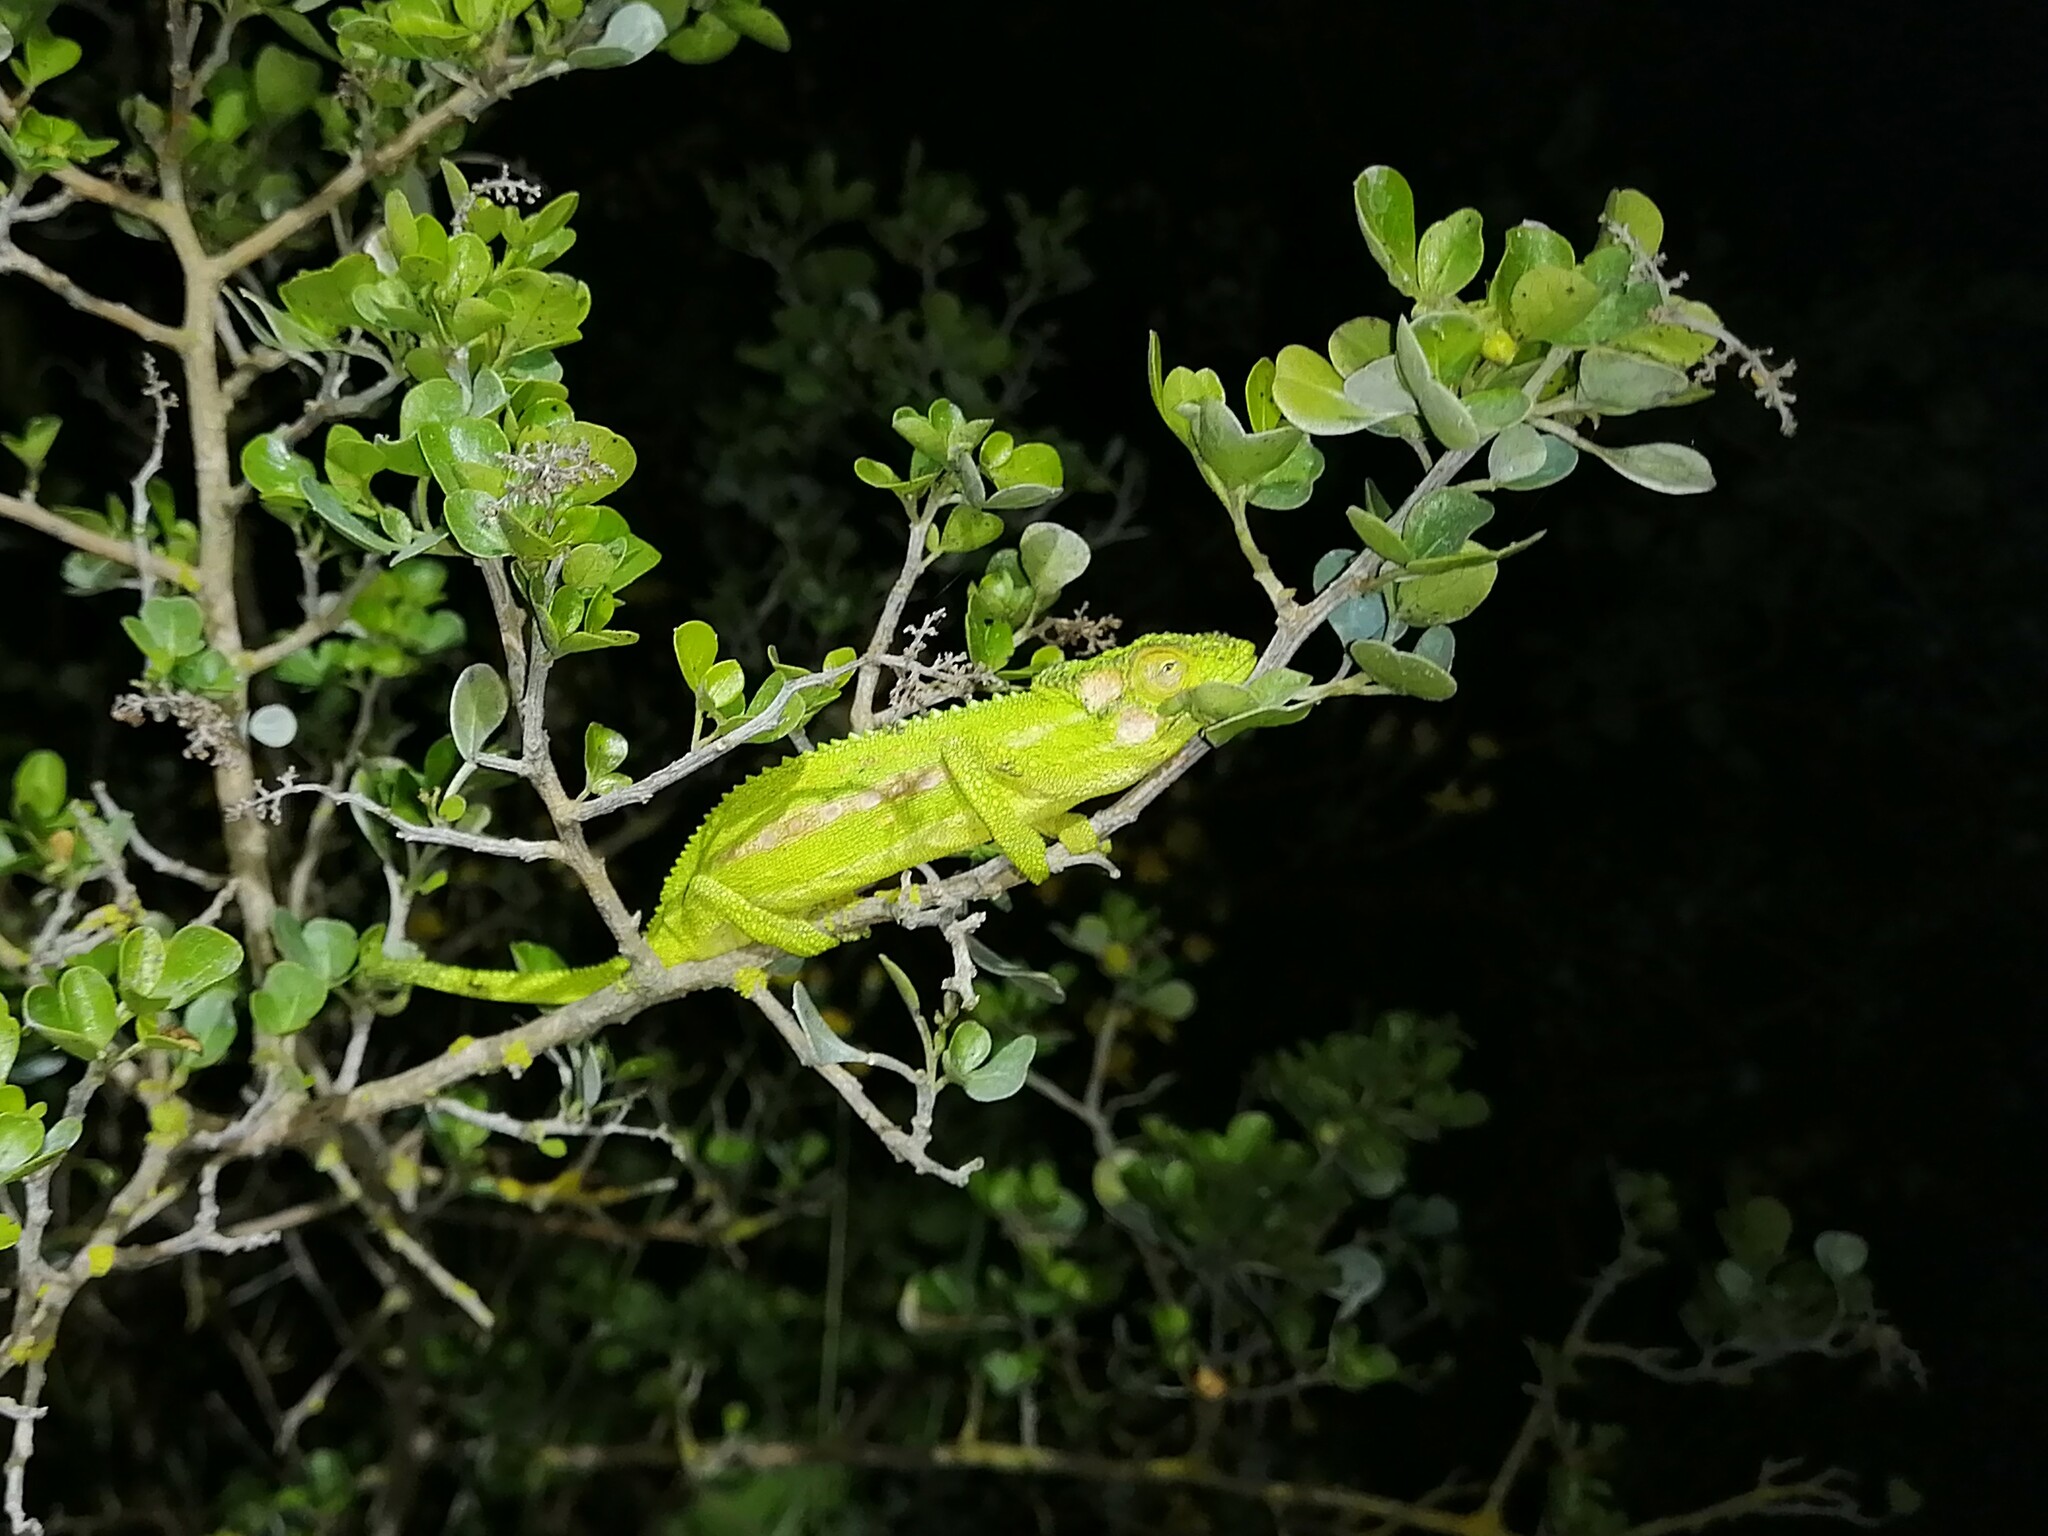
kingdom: Animalia
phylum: Chordata
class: Squamata
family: Chamaeleonidae
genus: Bradypodion
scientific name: Bradypodion pumilum
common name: Cape dwarf chameleon
